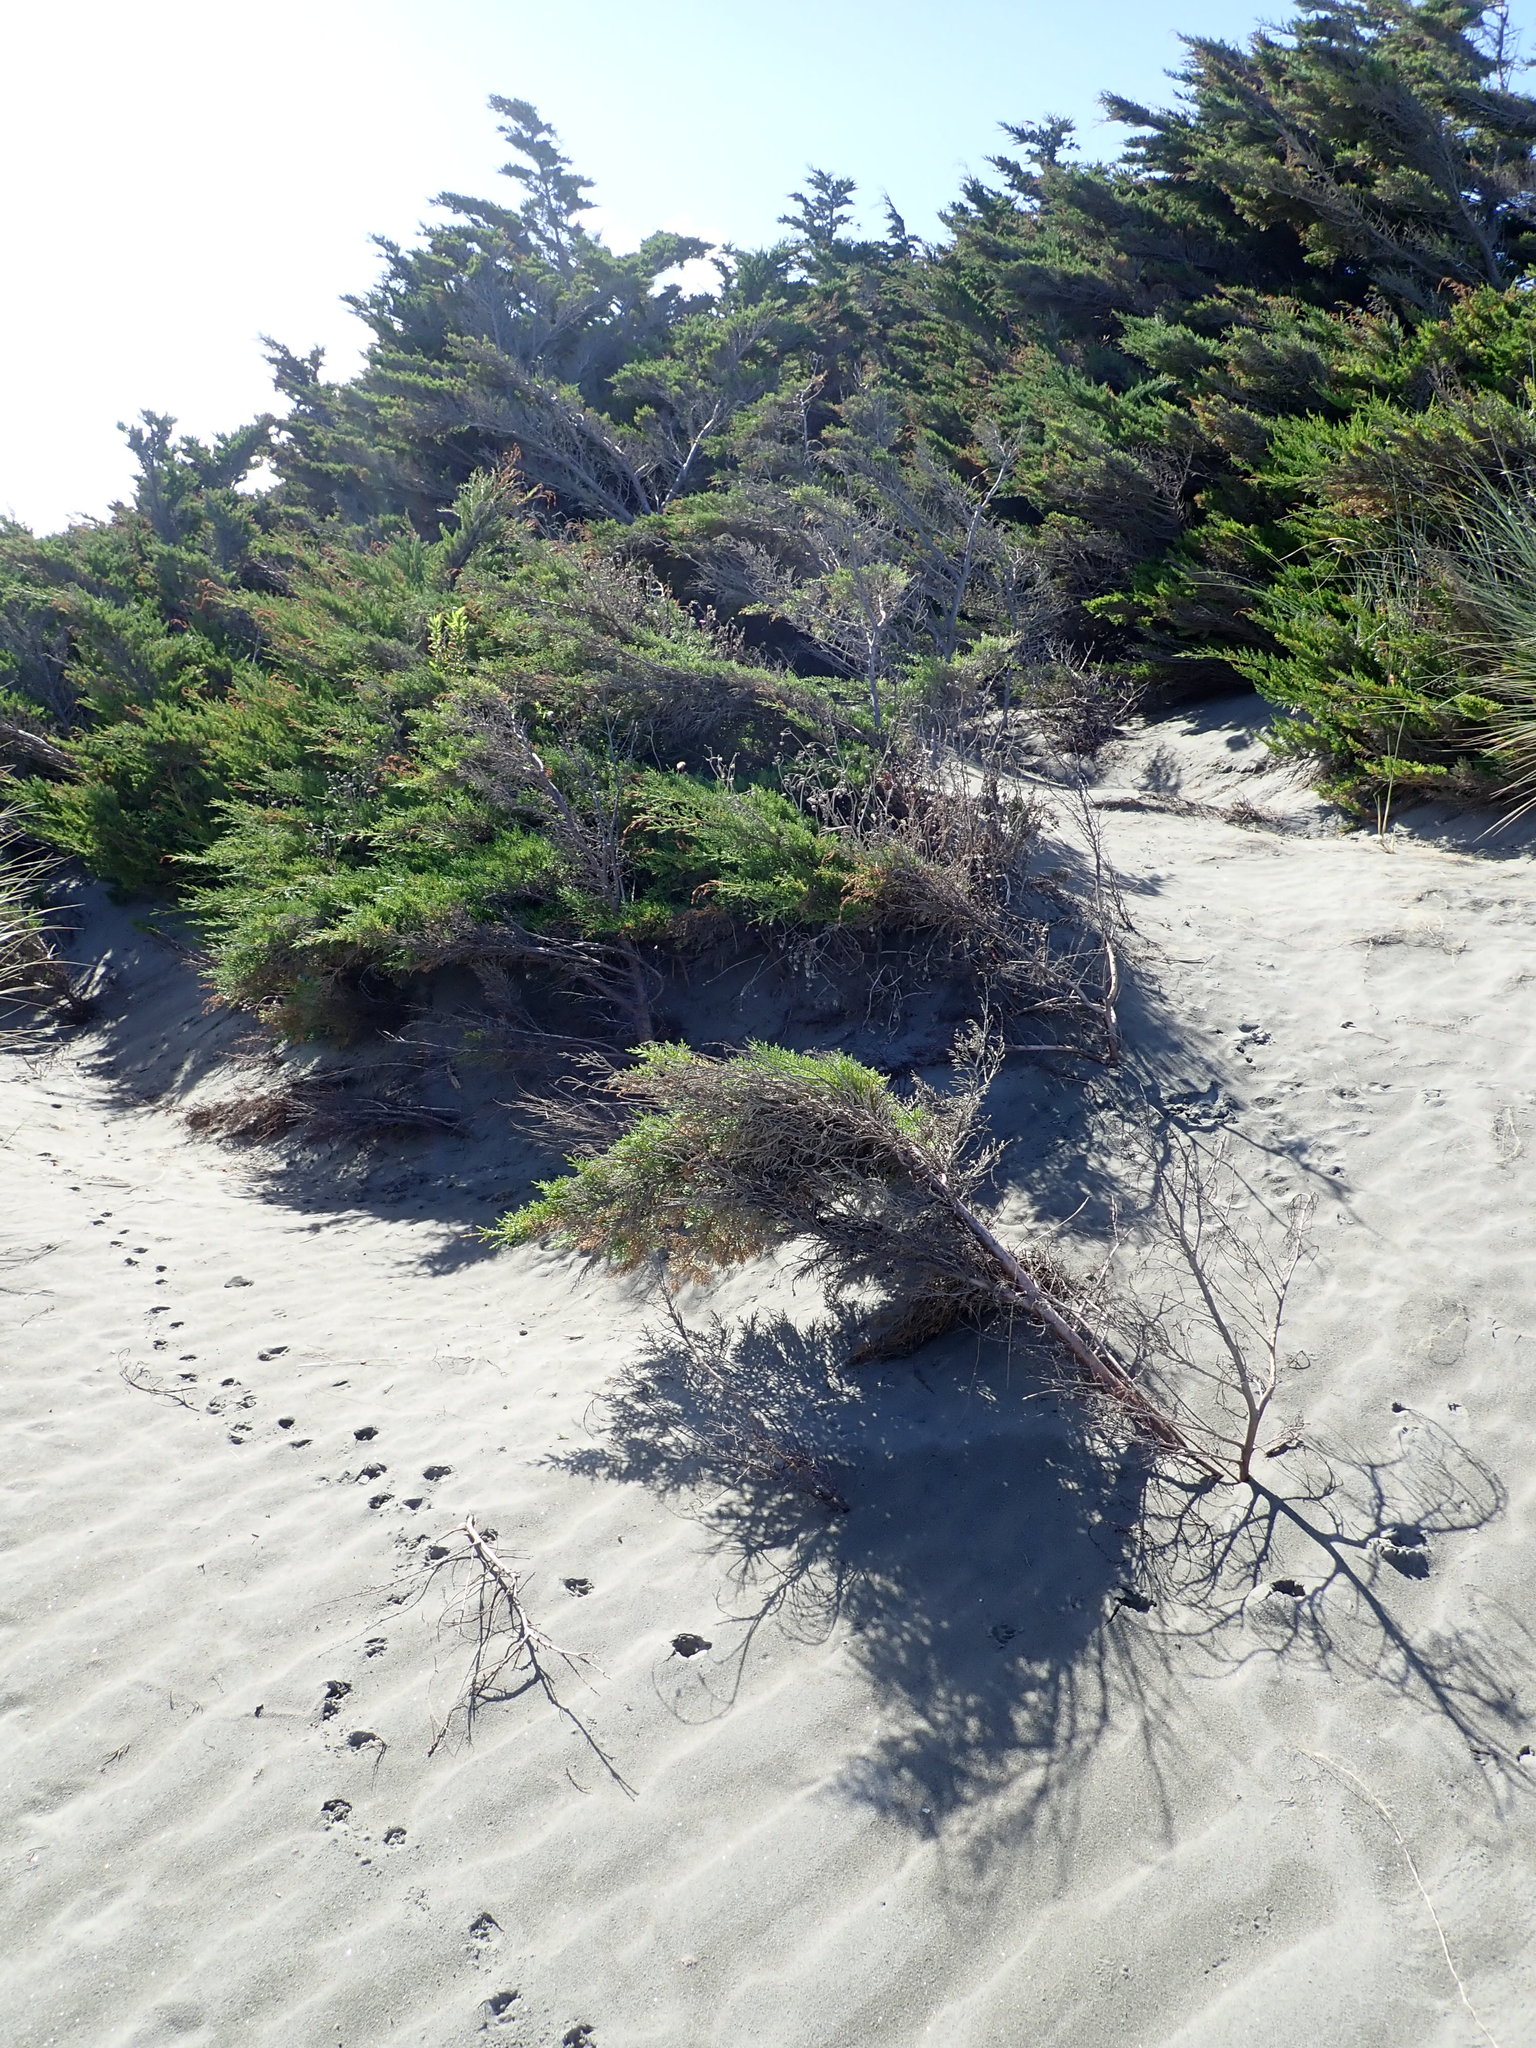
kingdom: Plantae
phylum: Tracheophyta
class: Pinopsida
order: Pinales
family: Cupressaceae
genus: Cupressus
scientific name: Cupressus macrocarpa
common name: Monterey cypress
